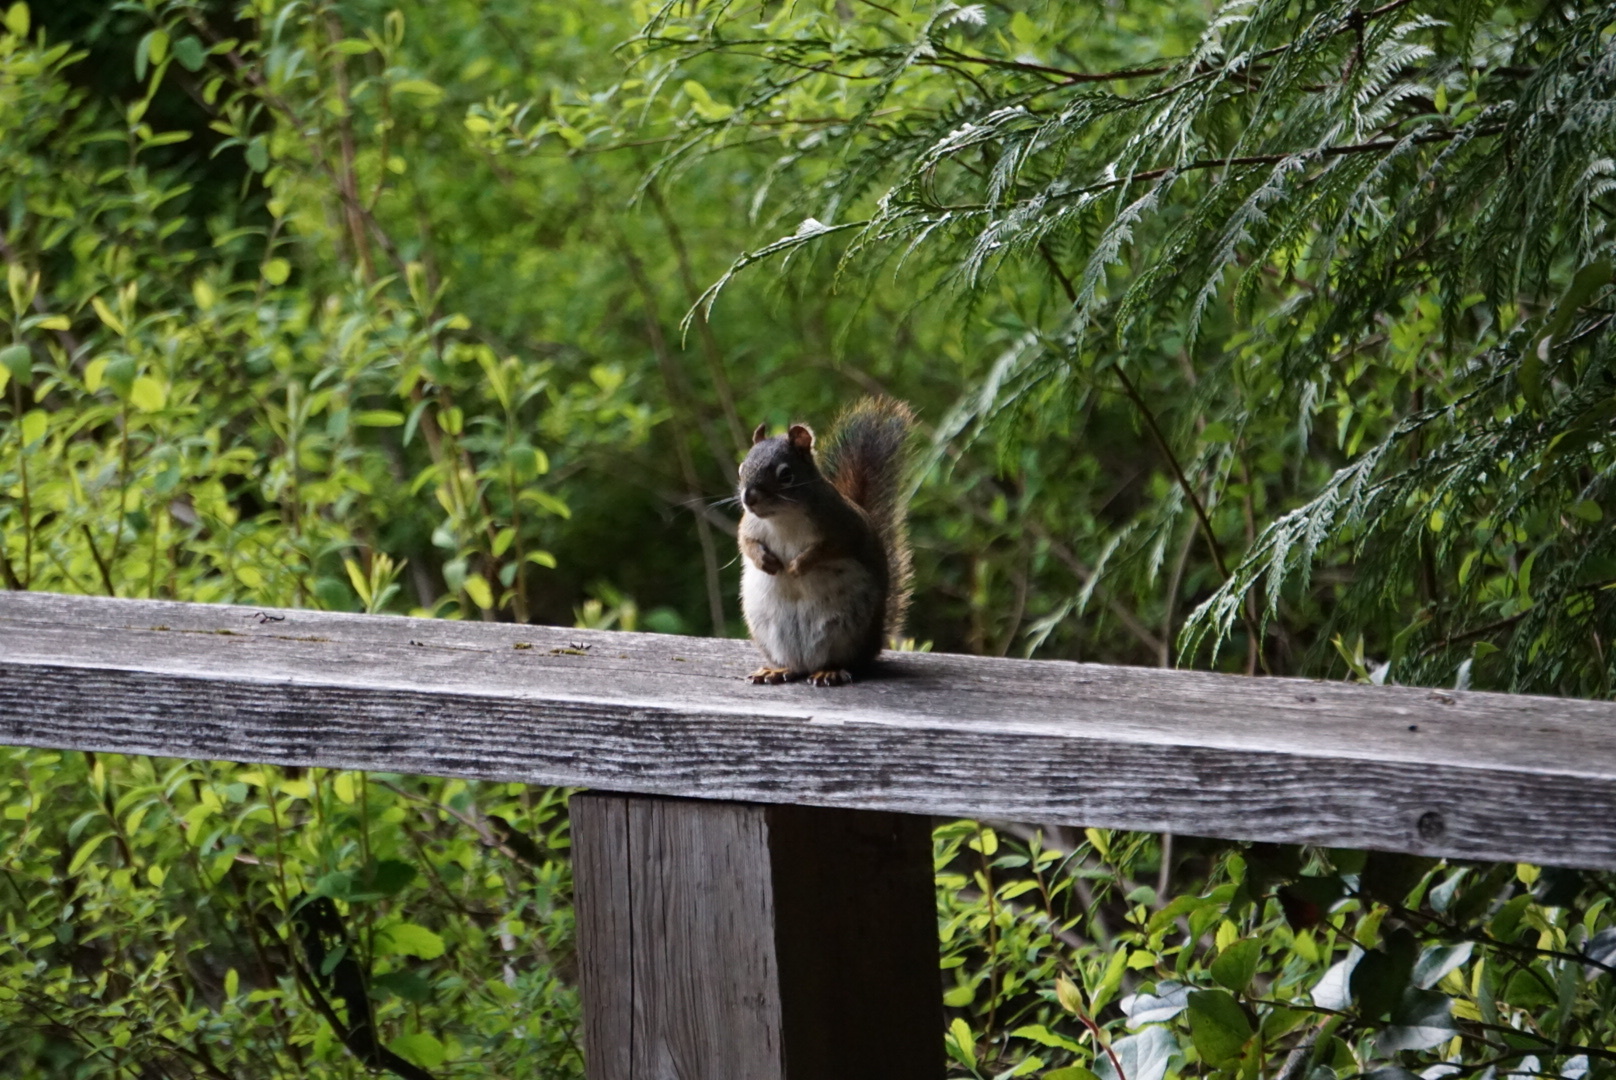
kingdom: Animalia
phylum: Chordata
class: Mammalia
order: Rodentia
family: Sciuridae
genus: Tamiasciurus
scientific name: Tamiasciurus hudsonicus
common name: Red squirrel
